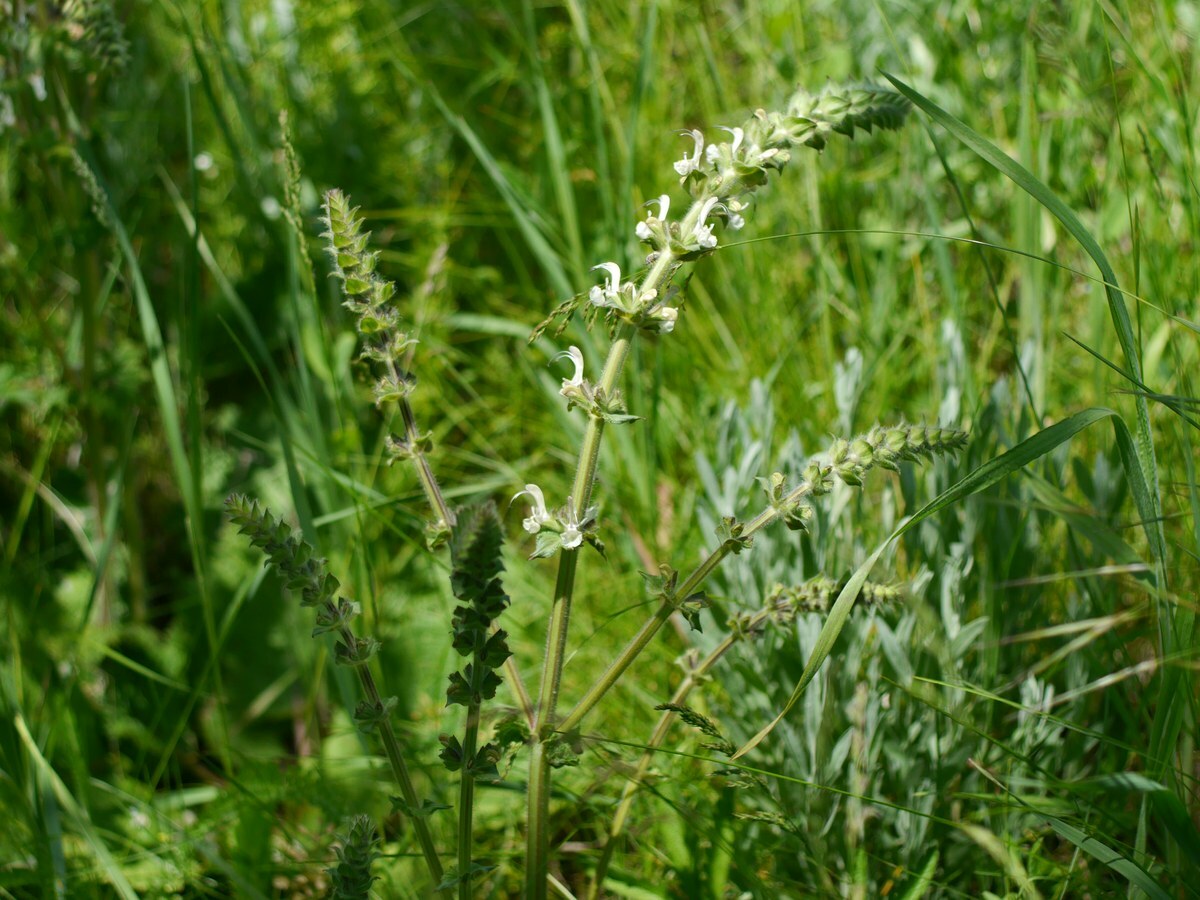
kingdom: Plantae
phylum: Tracheophyta
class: Magnoliopsida
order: Lamiales
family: Lamiaceae
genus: Salvia
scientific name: Salvia revoluta
